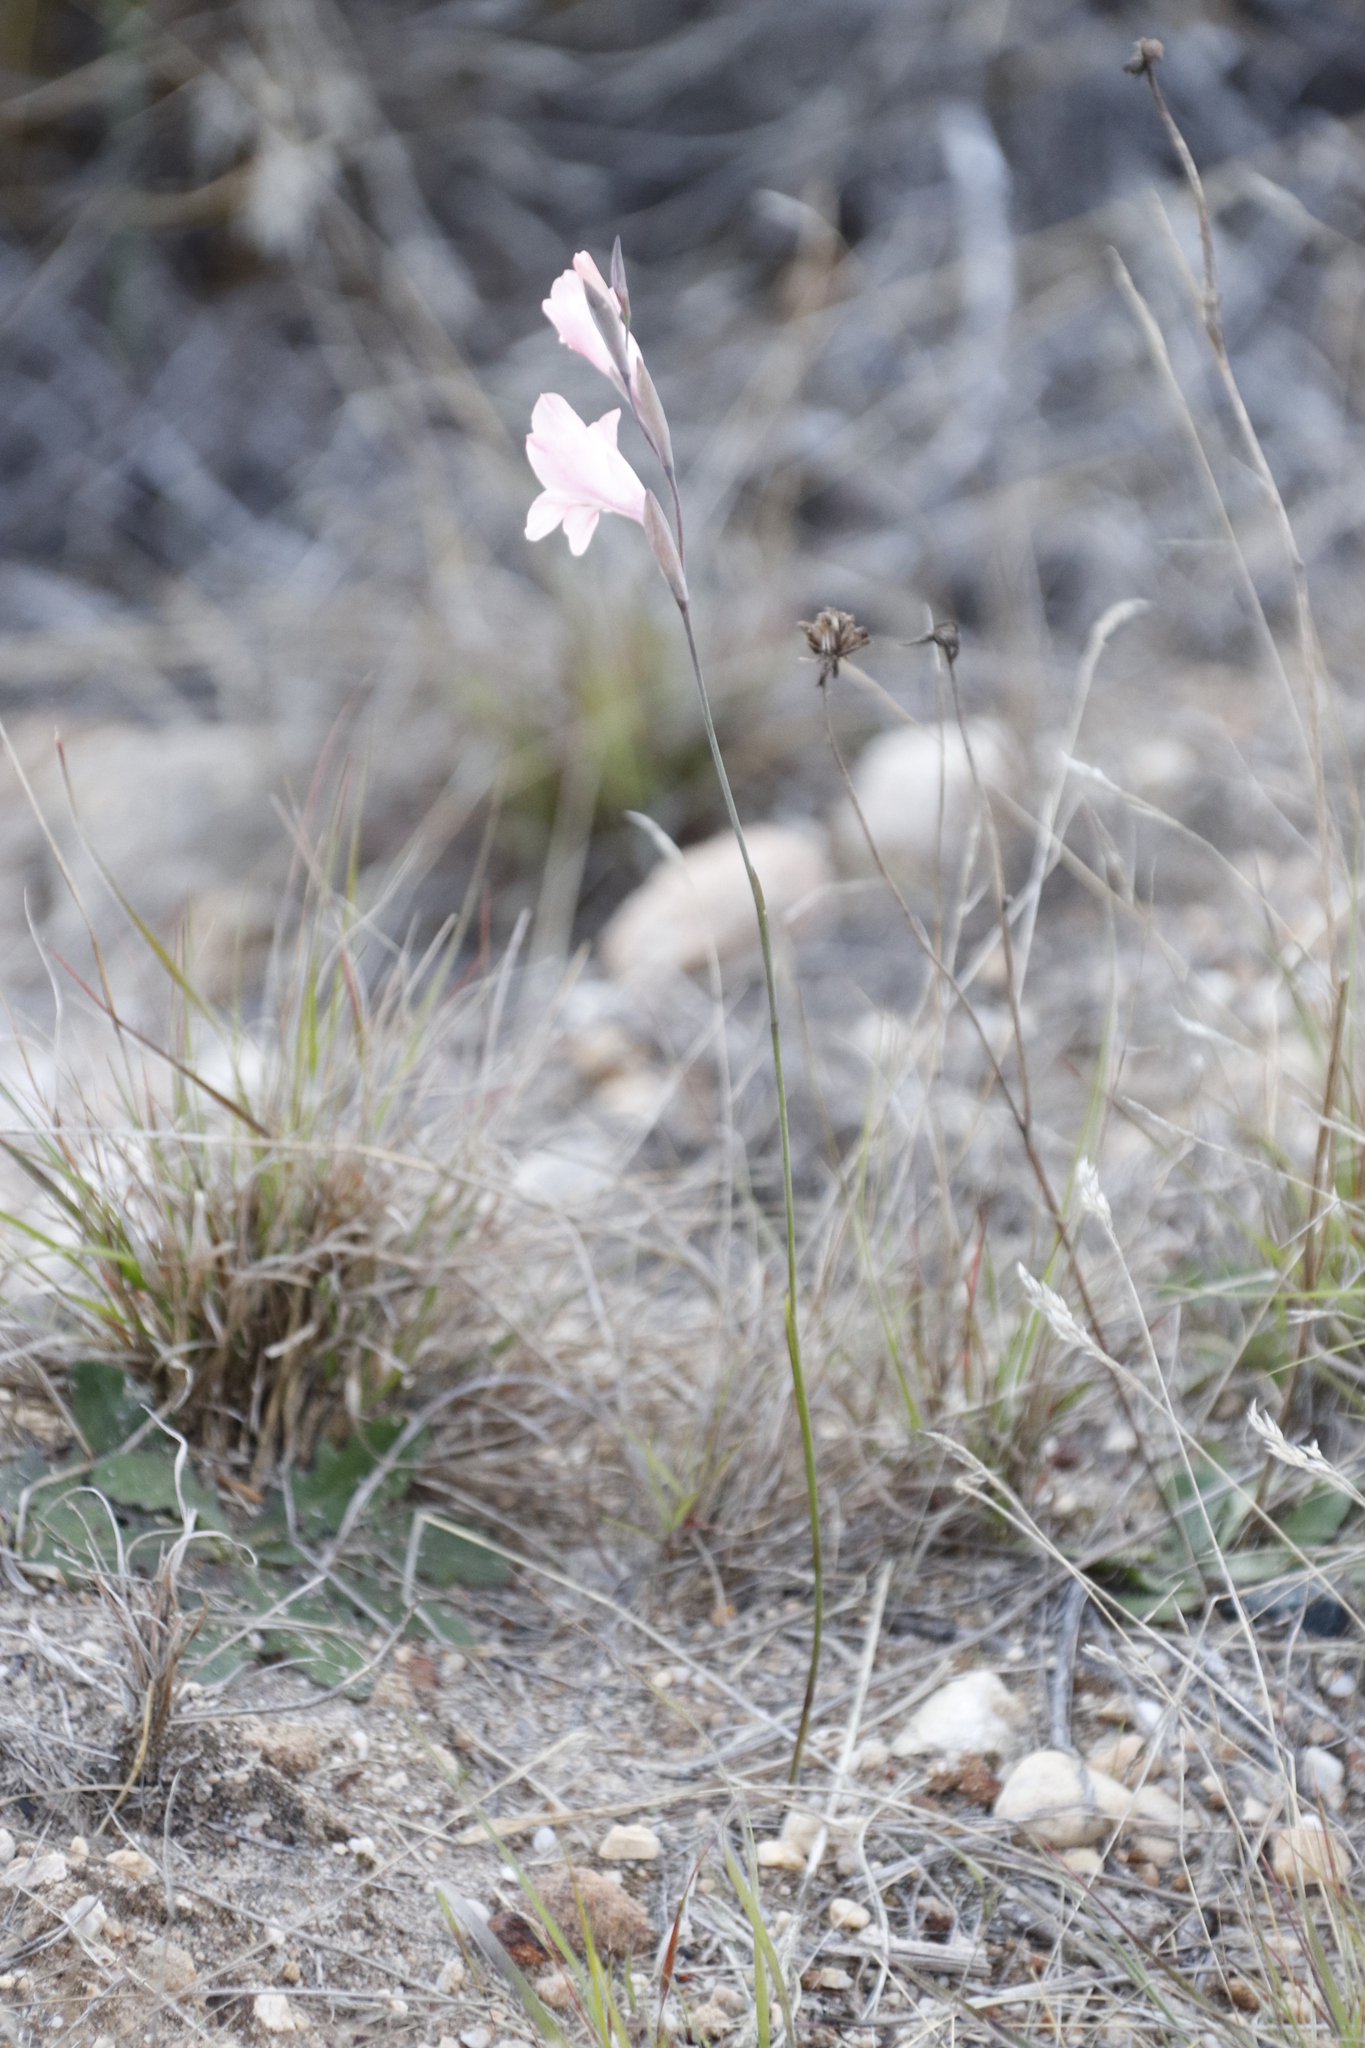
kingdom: Plantae
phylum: Tracheophyta
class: Liliopsida
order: Asparagales
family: Iridaceae
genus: Gladiolus
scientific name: Gladiolus brevifolius
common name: March pypie
